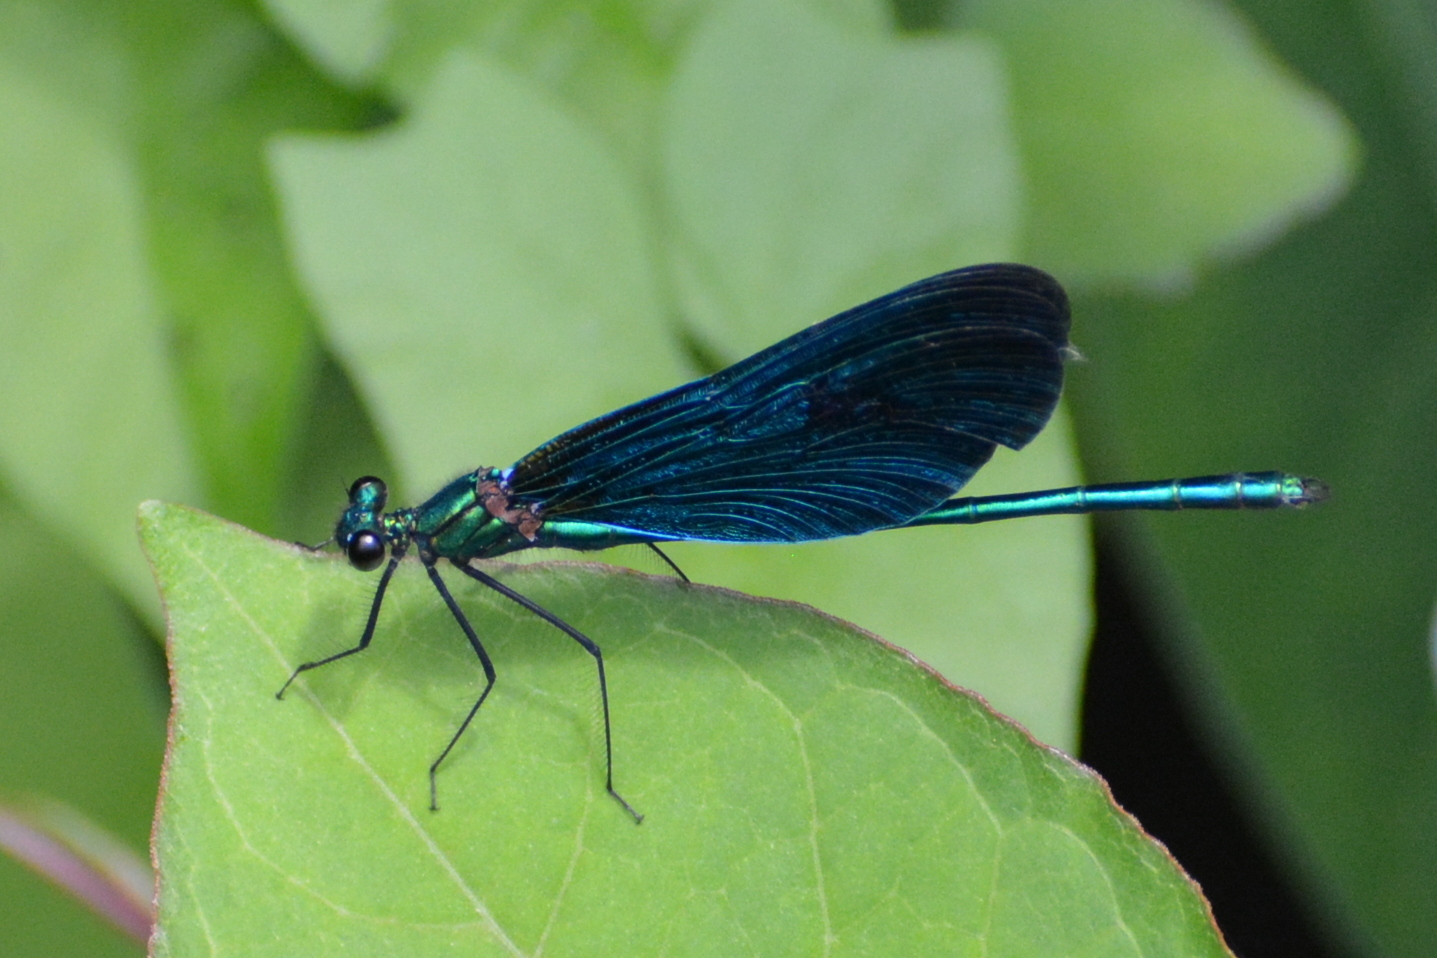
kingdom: Animalia
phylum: Arthropoda
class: Insecta
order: Odonata
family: Calopterygidae
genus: Calopteryx
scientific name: Calopteryx virgo
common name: Beautiful demoiselle
